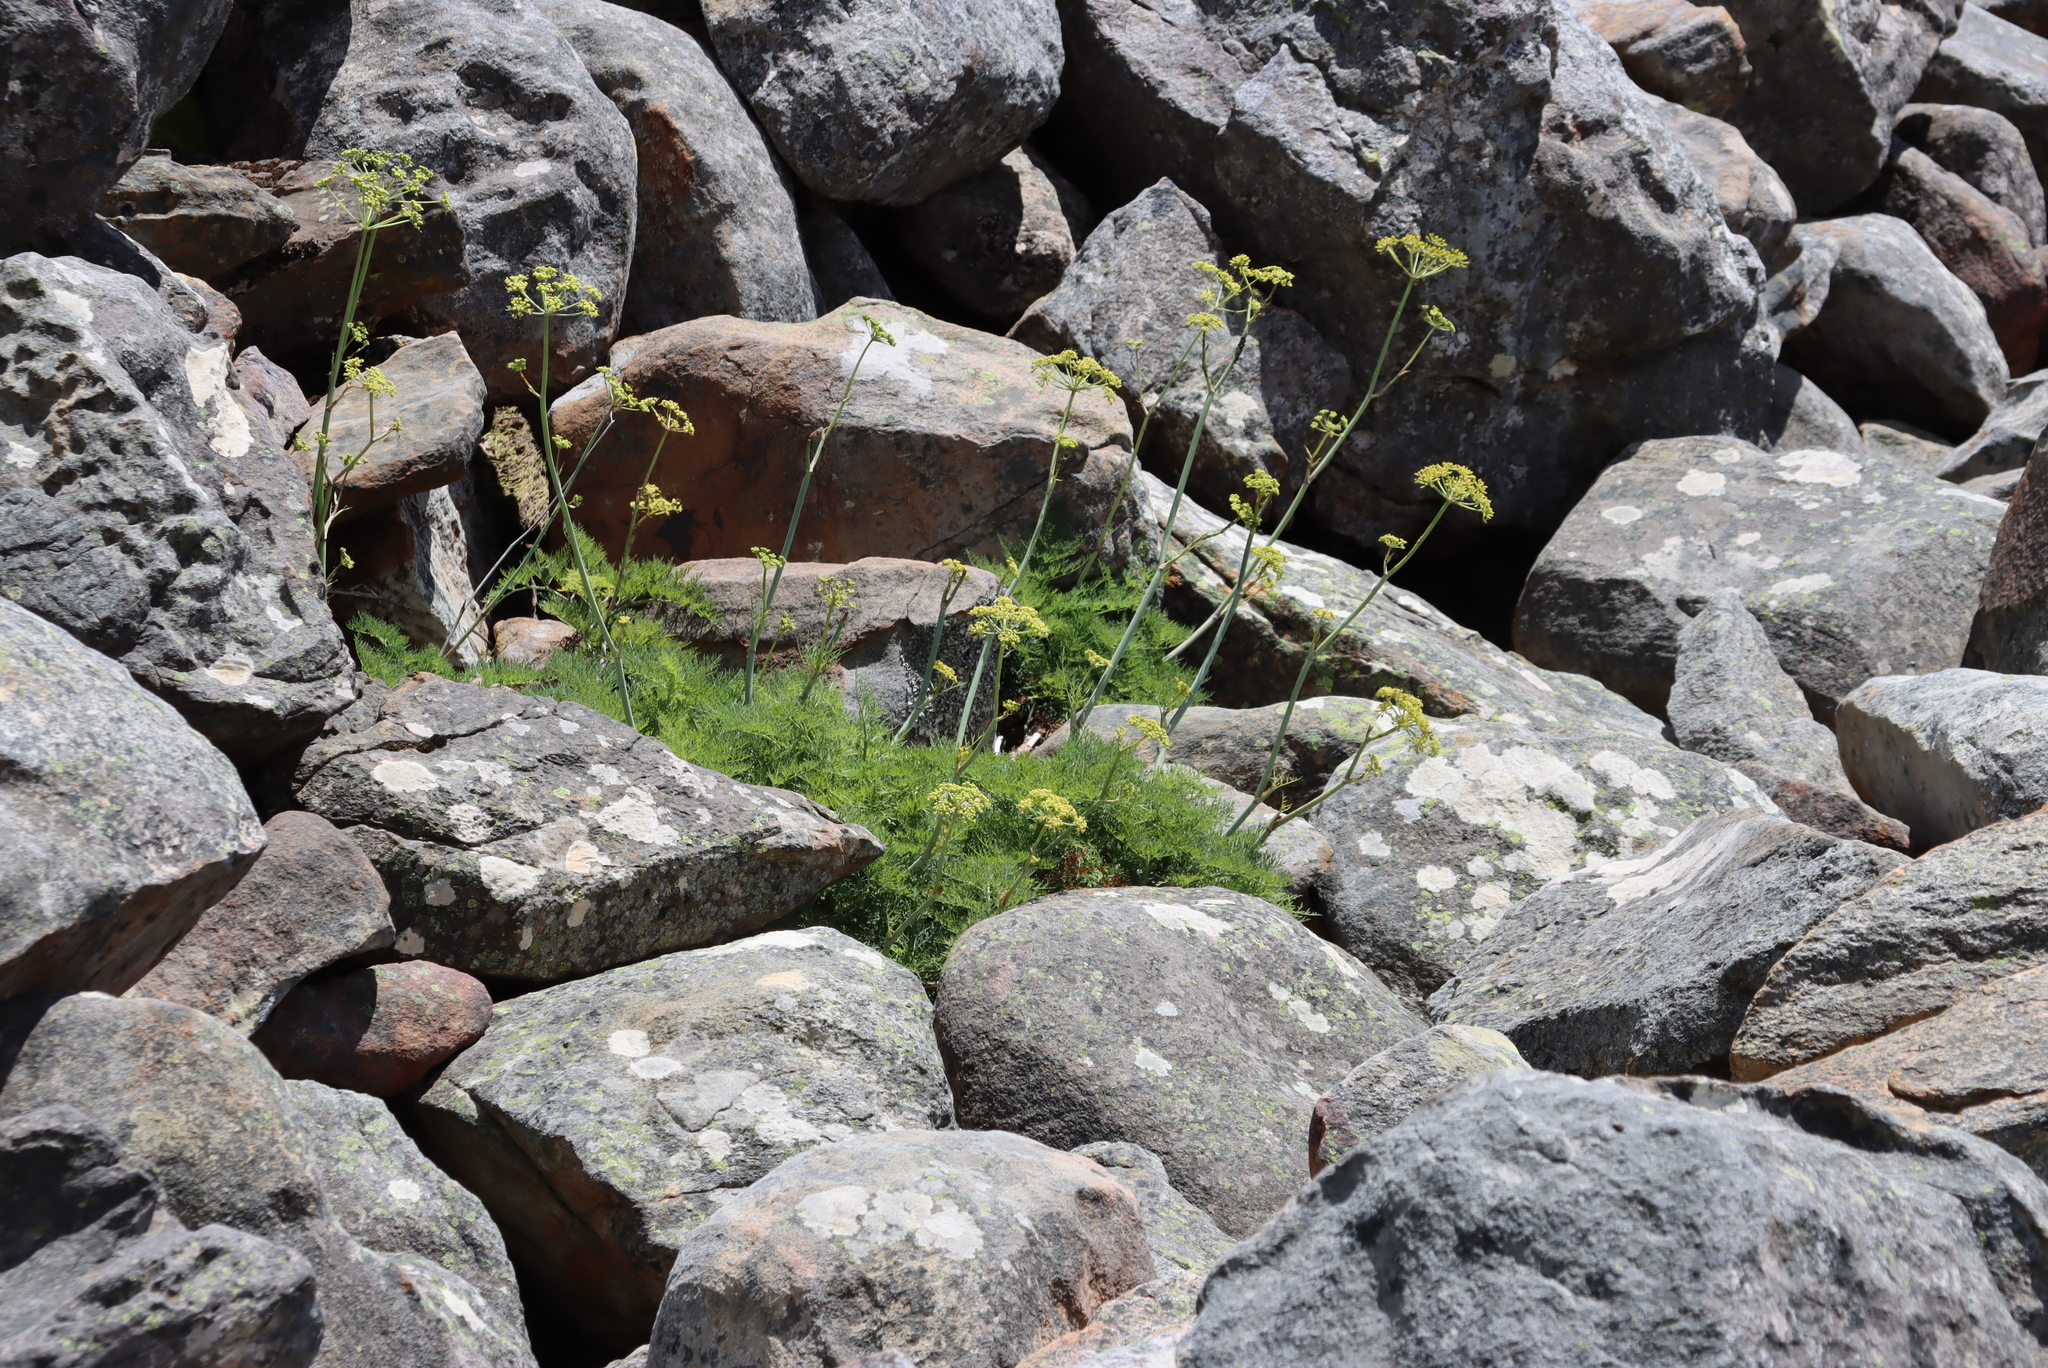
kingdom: Plantae
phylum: Tracheophyta
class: Magnoliopsida
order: Apiales
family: Apiaceae
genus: Notobubon
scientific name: Notobubon sonderi
